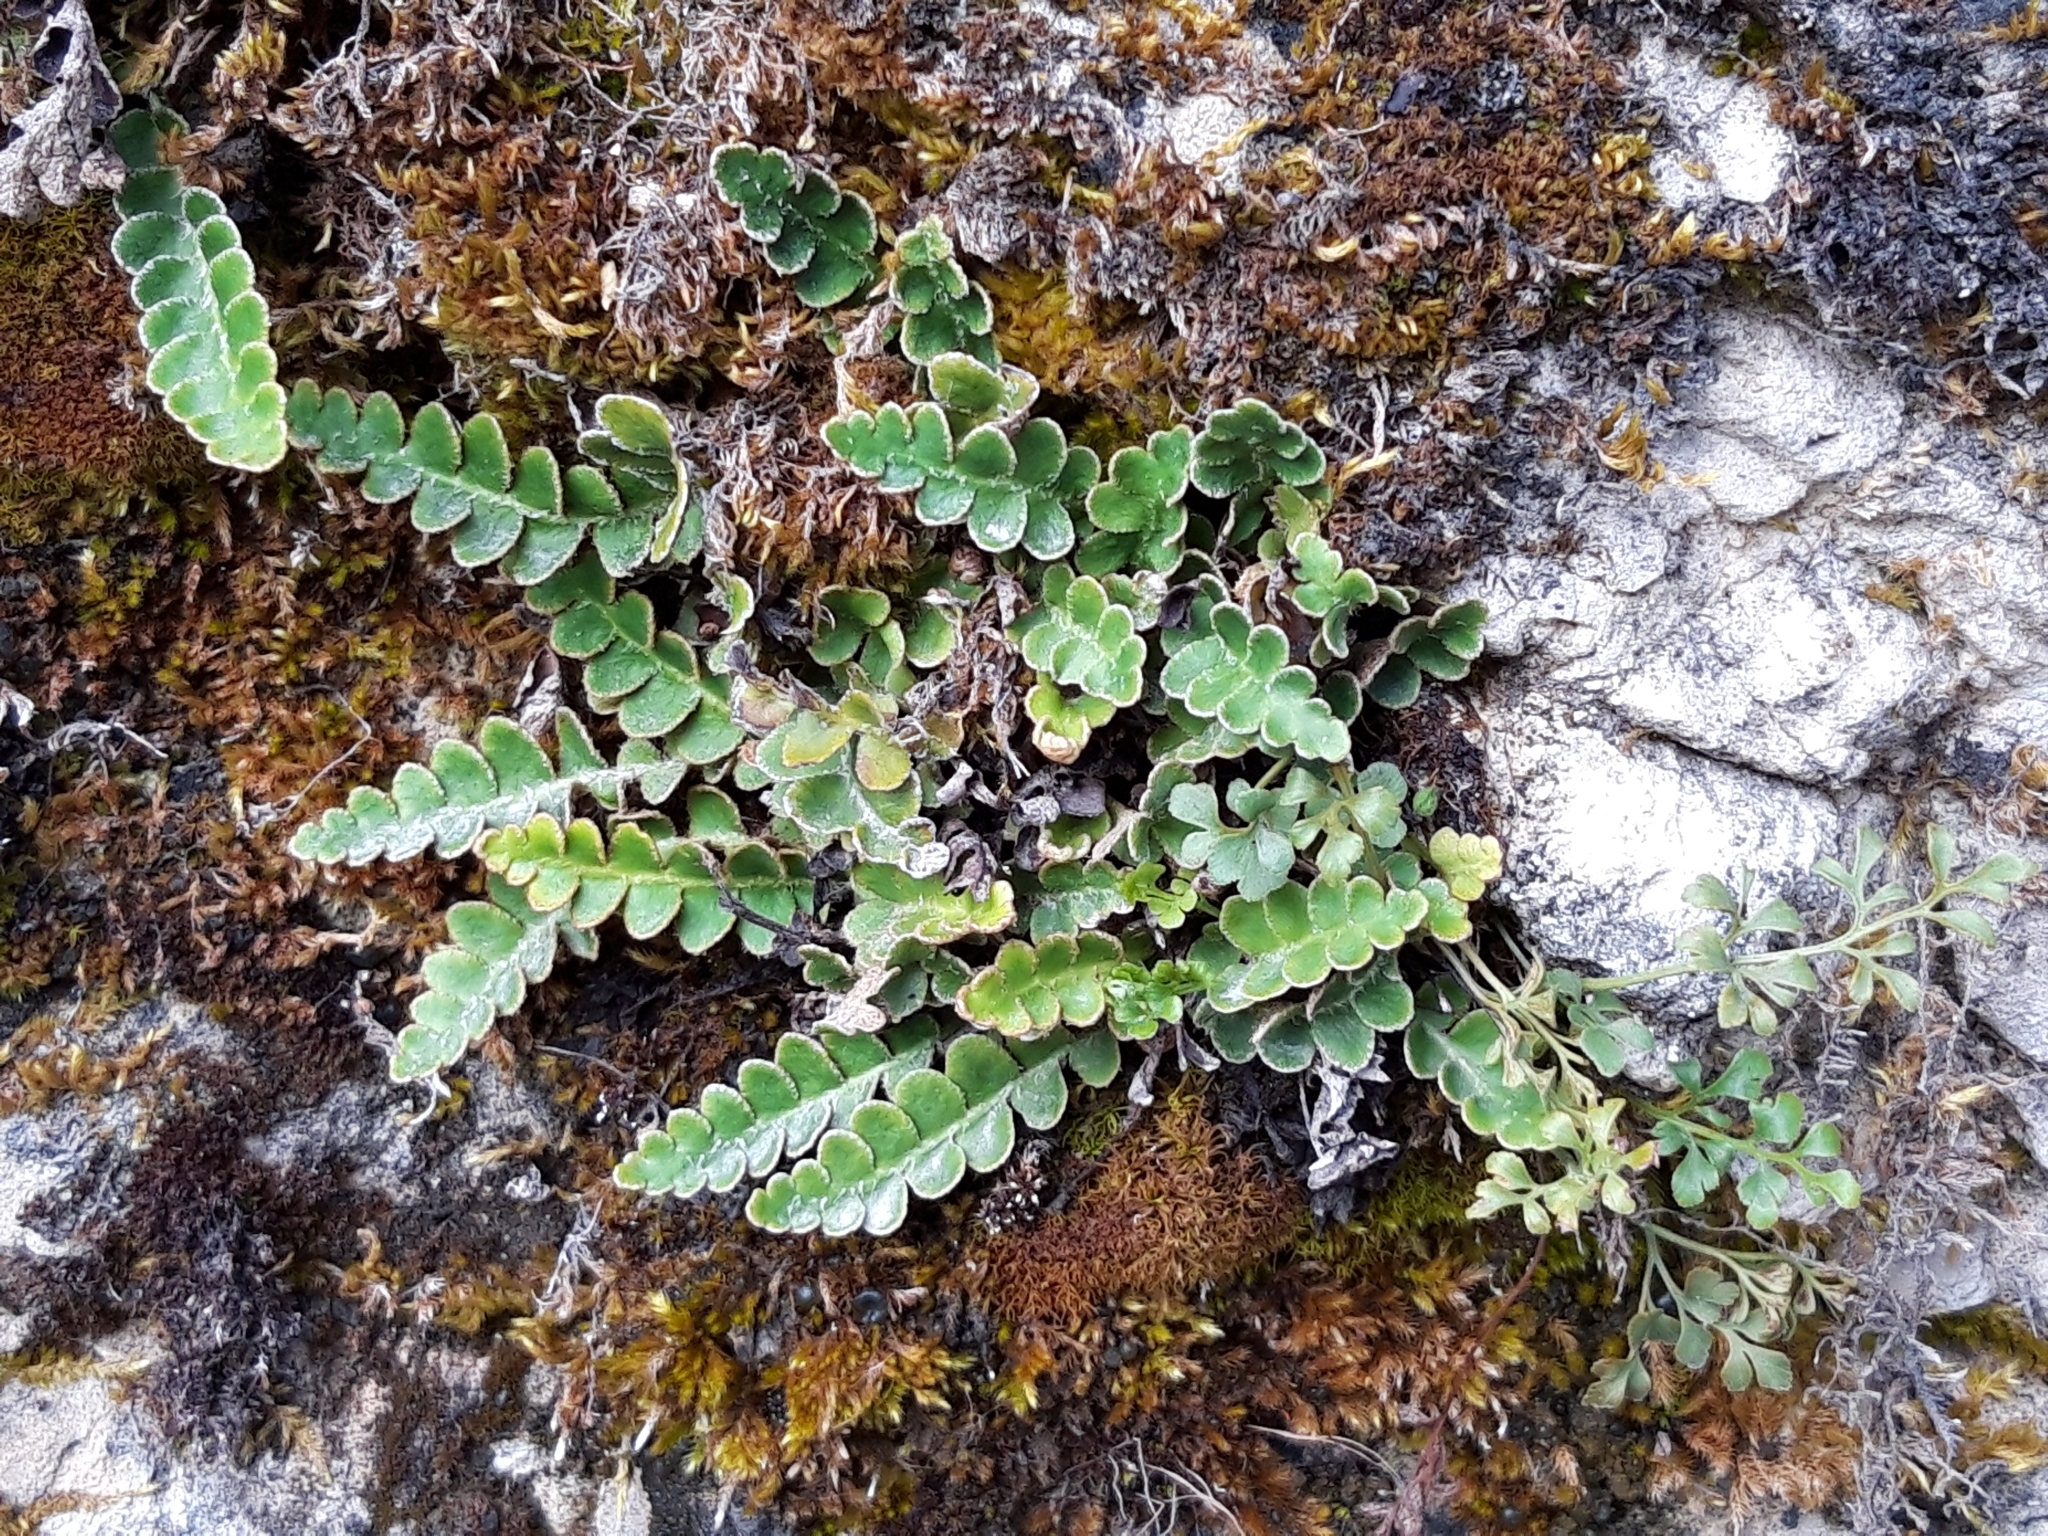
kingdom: Plantae
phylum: Tracheophyta
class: Polypodiopsida
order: Polypodiales
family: Aspleniaceae
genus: Asplenium
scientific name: Asplenium ceterach
